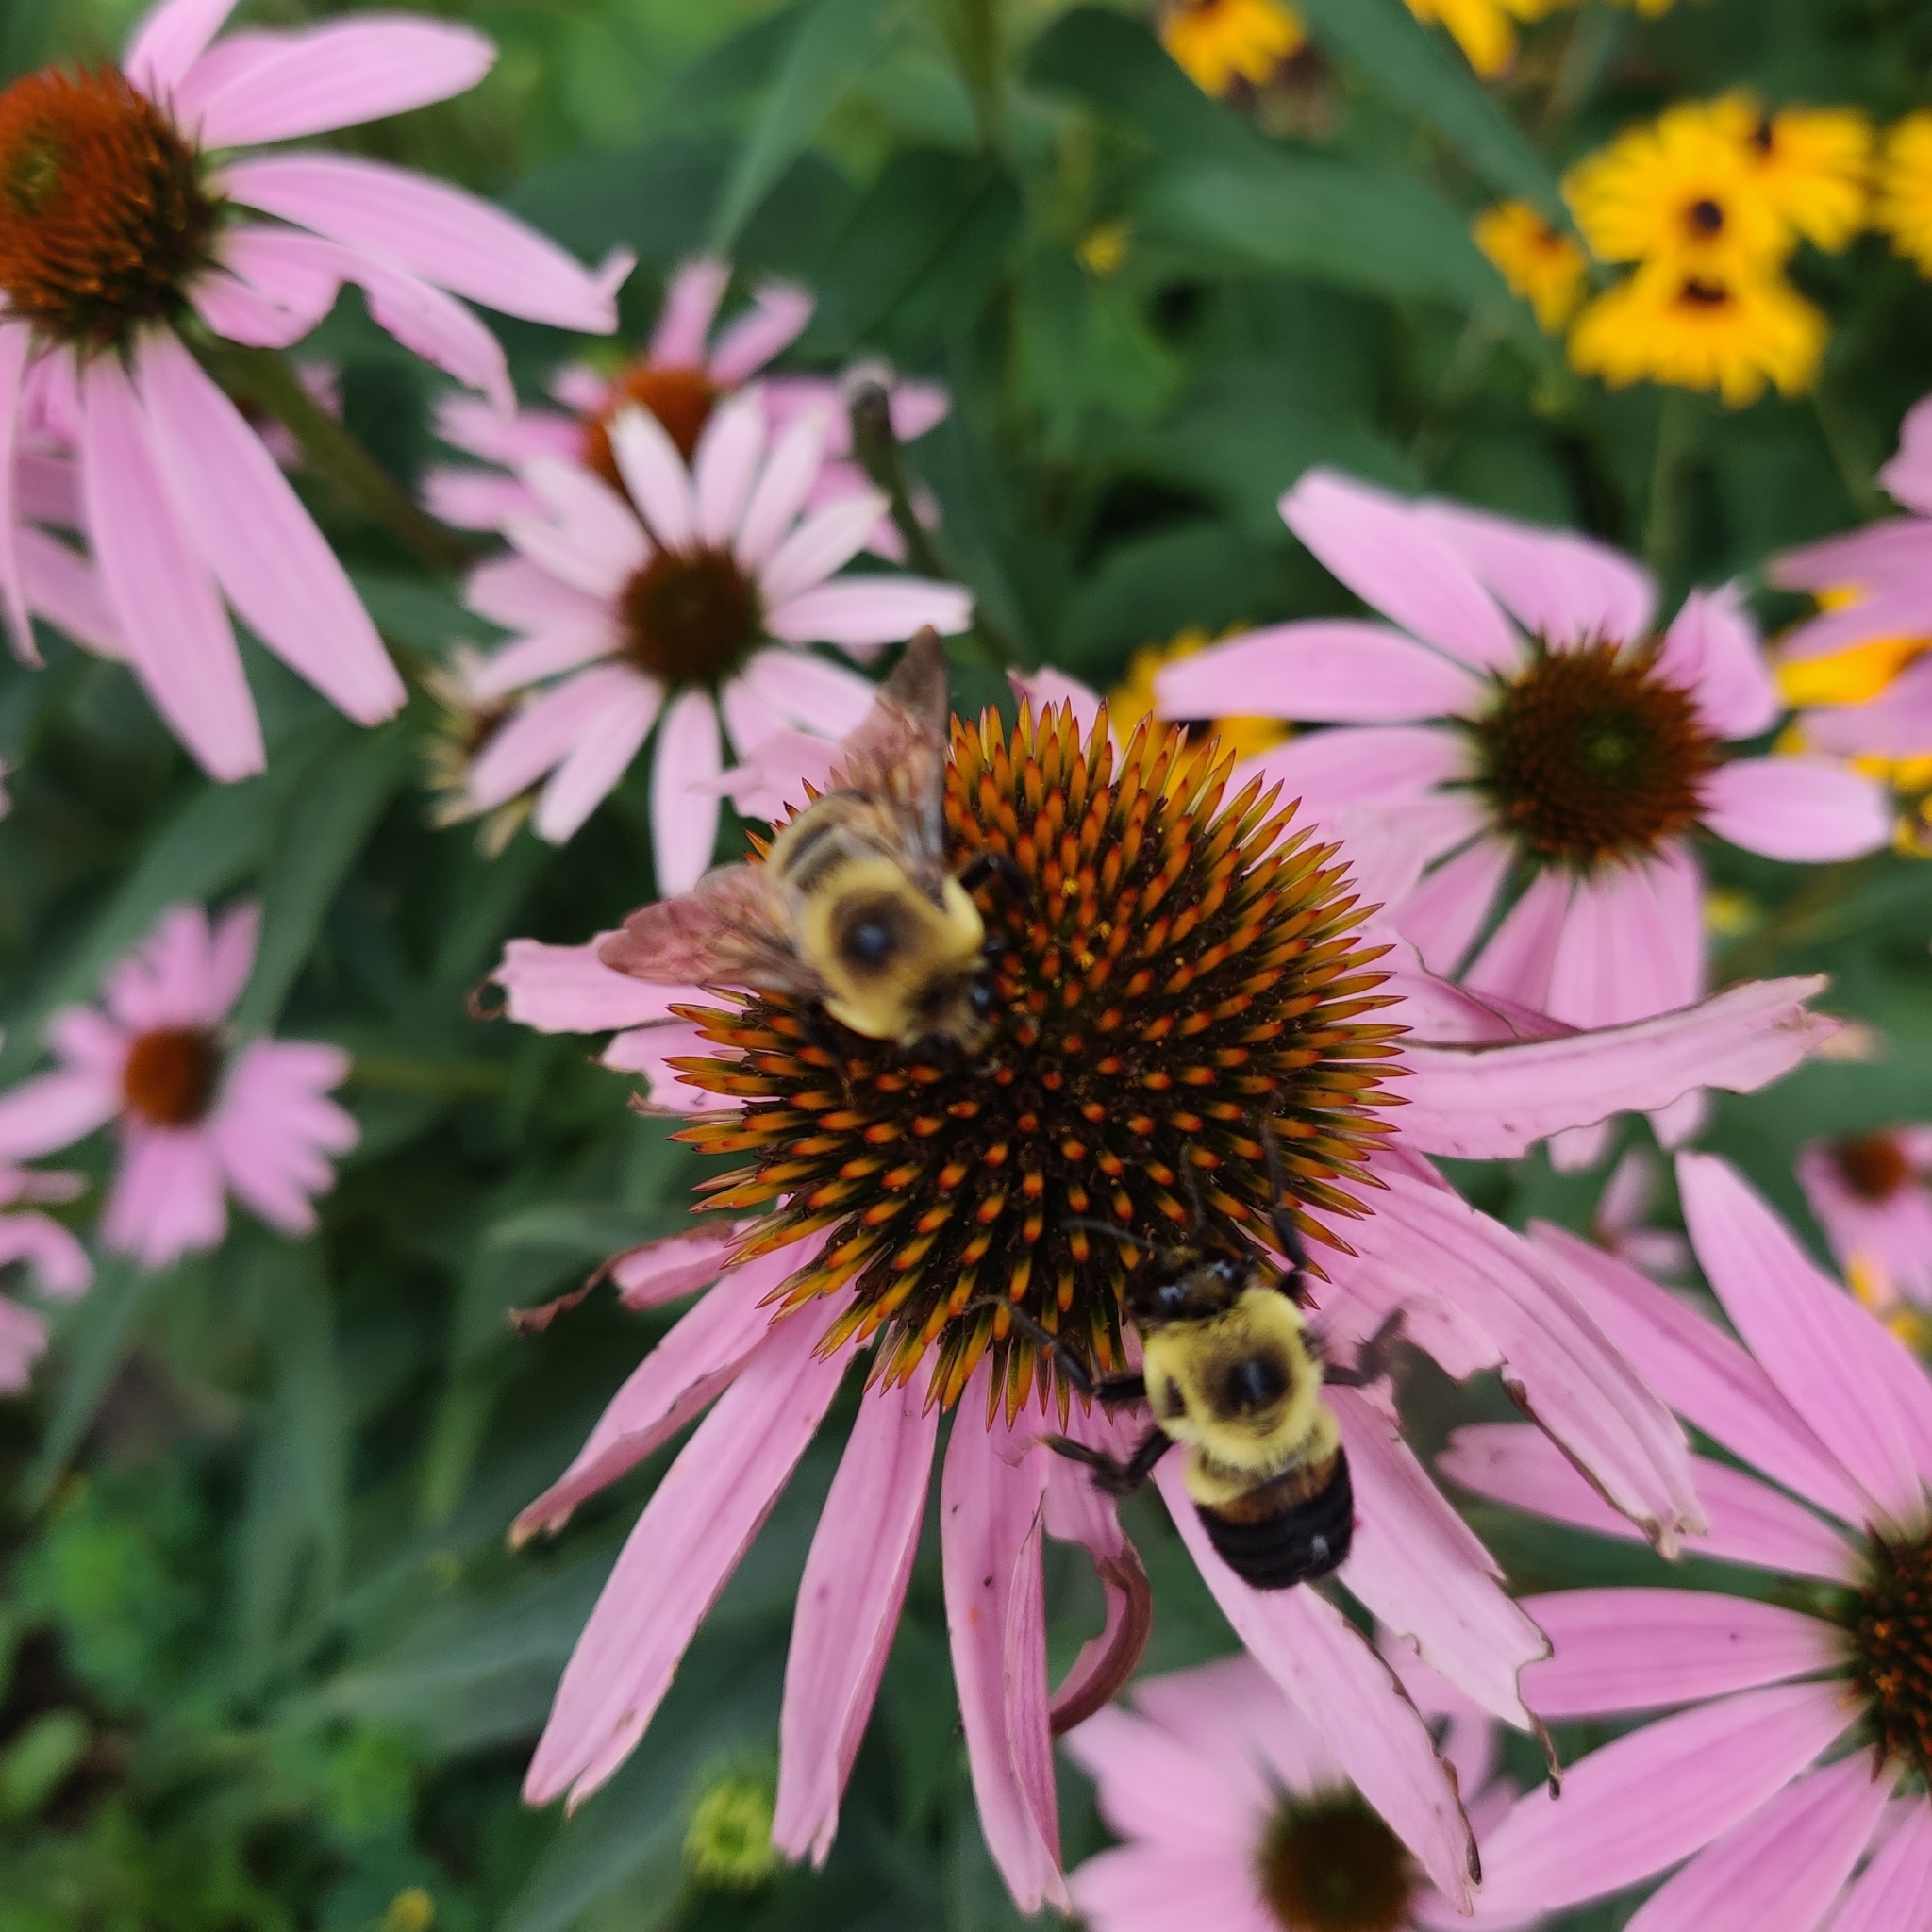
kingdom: Animalia
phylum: Arthropoda
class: Insecta
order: Hymenoptera
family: Apidae
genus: Bombus
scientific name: Bombus griseocollis
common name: Brown-belted bumble bee
